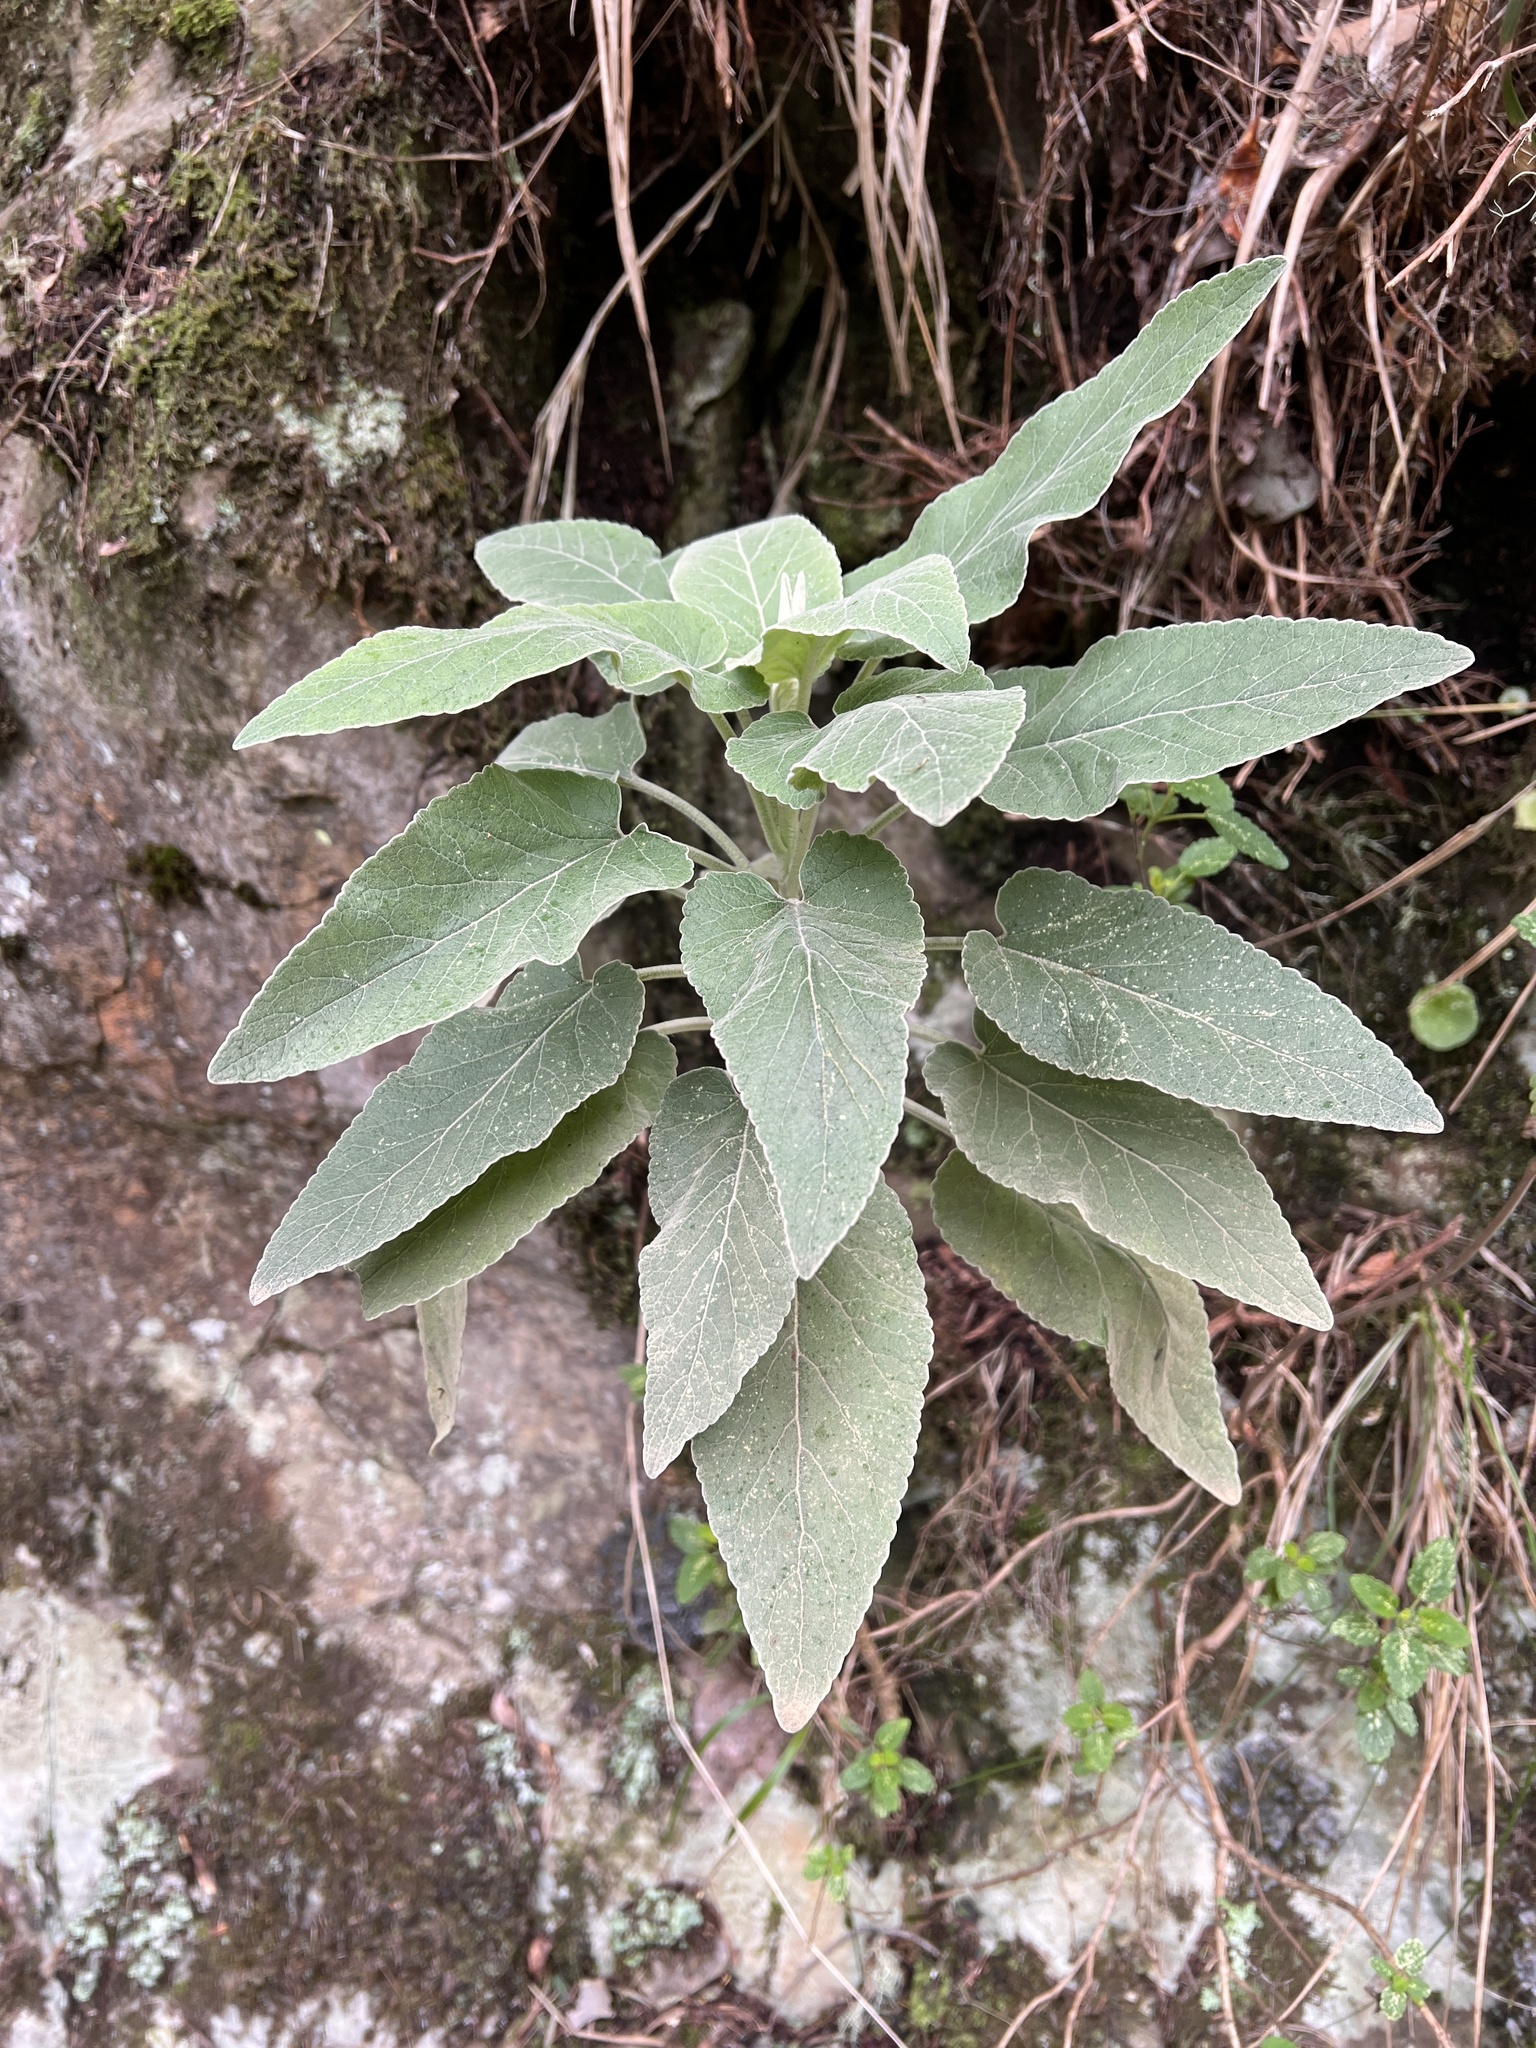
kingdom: Plantae
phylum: Tracheophyta
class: Magnoliopsida
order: Lamiales
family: Lamiaceae
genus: Sideritis
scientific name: Sideritis candicans
